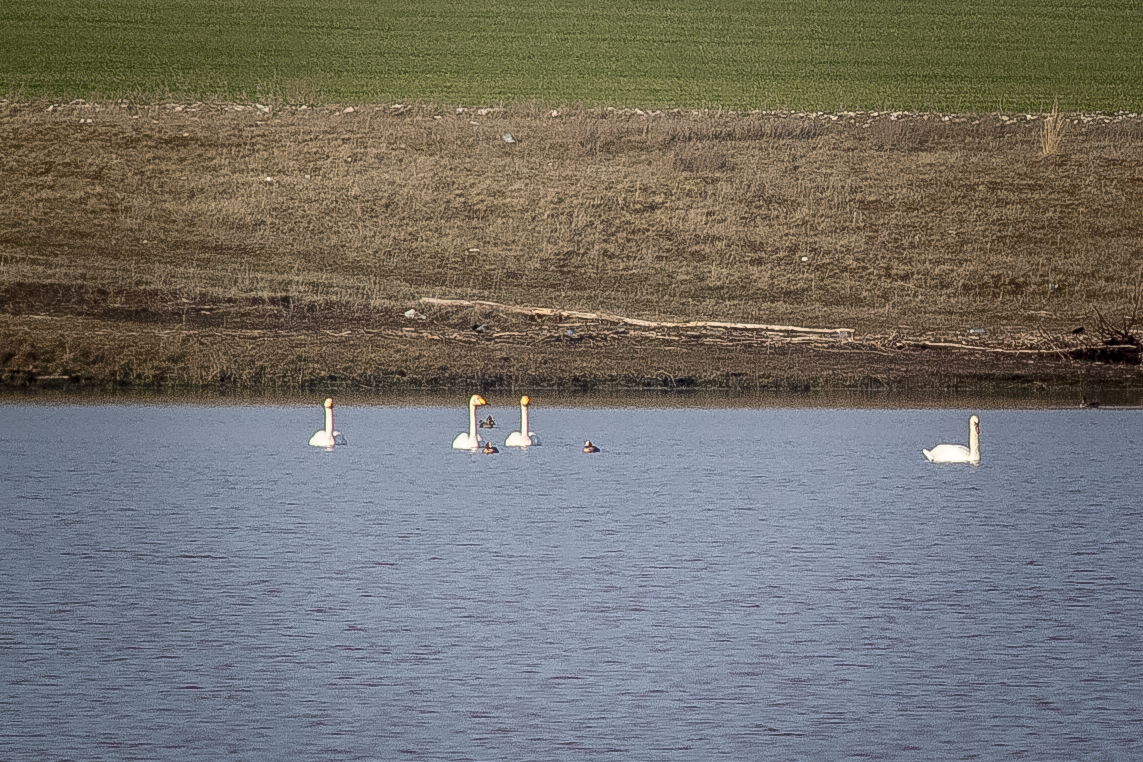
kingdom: Animalia
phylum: Chordata
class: Aves
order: Anseriformes
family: Anatidae
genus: Cygnus
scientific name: Cygnus cygnus
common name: Whooper swan
